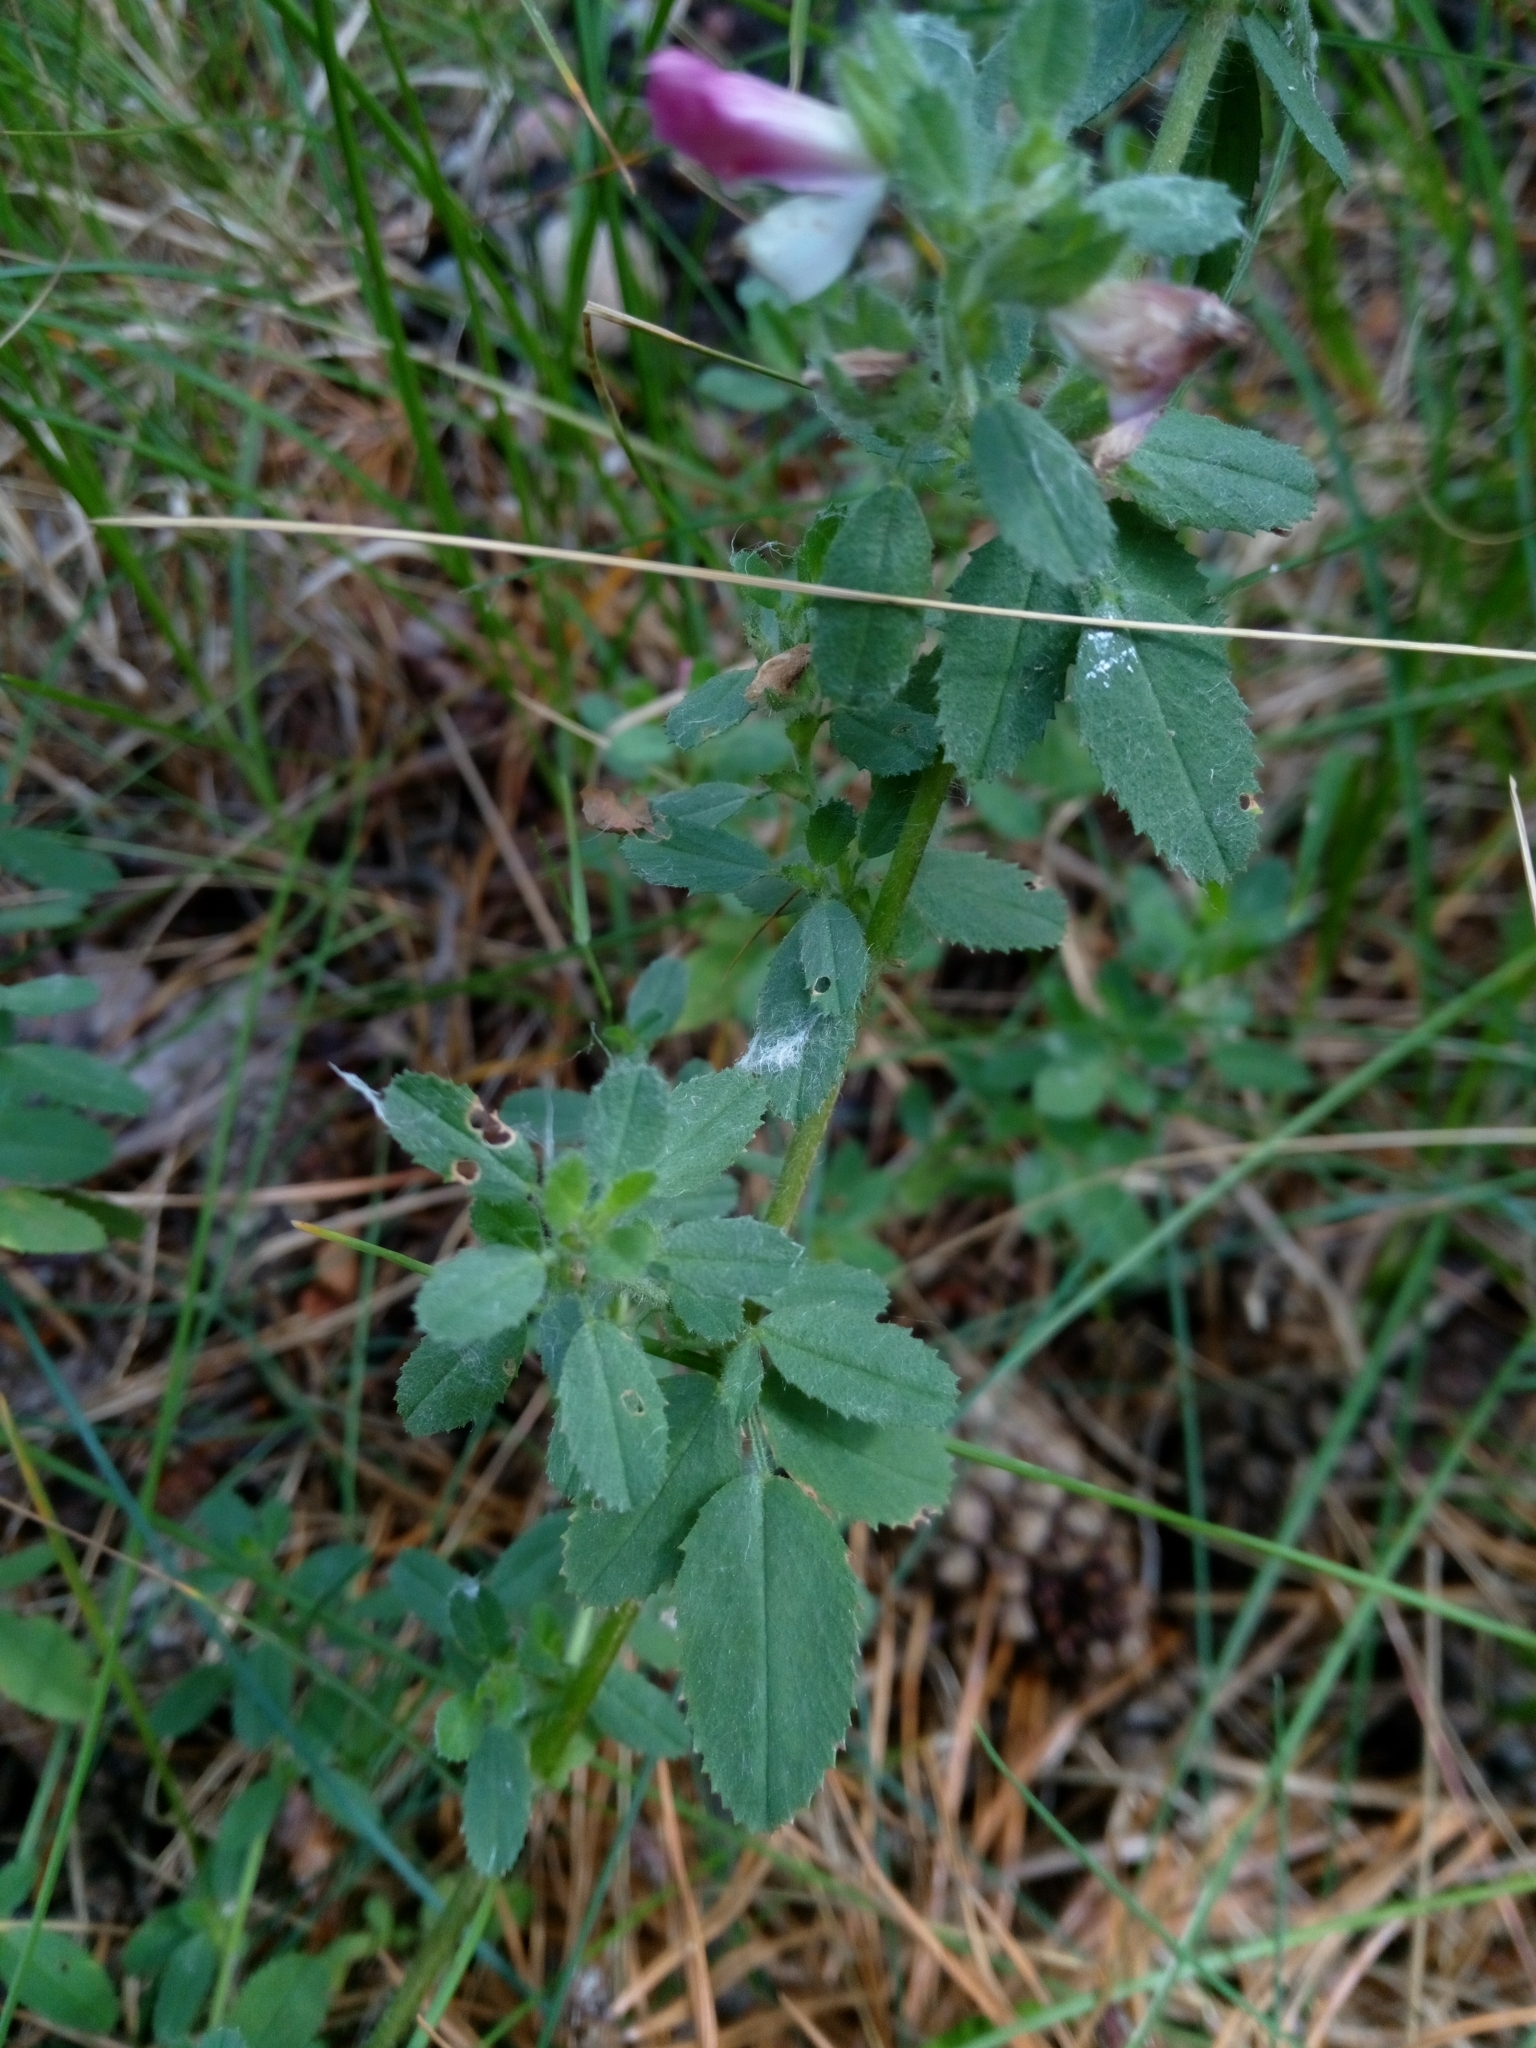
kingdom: Plantae
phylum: Tracheophyta
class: Magnoliopsida
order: Fabales
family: Fabaceae
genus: Ononis
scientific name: Ononis arvensis
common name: Field restharrow
